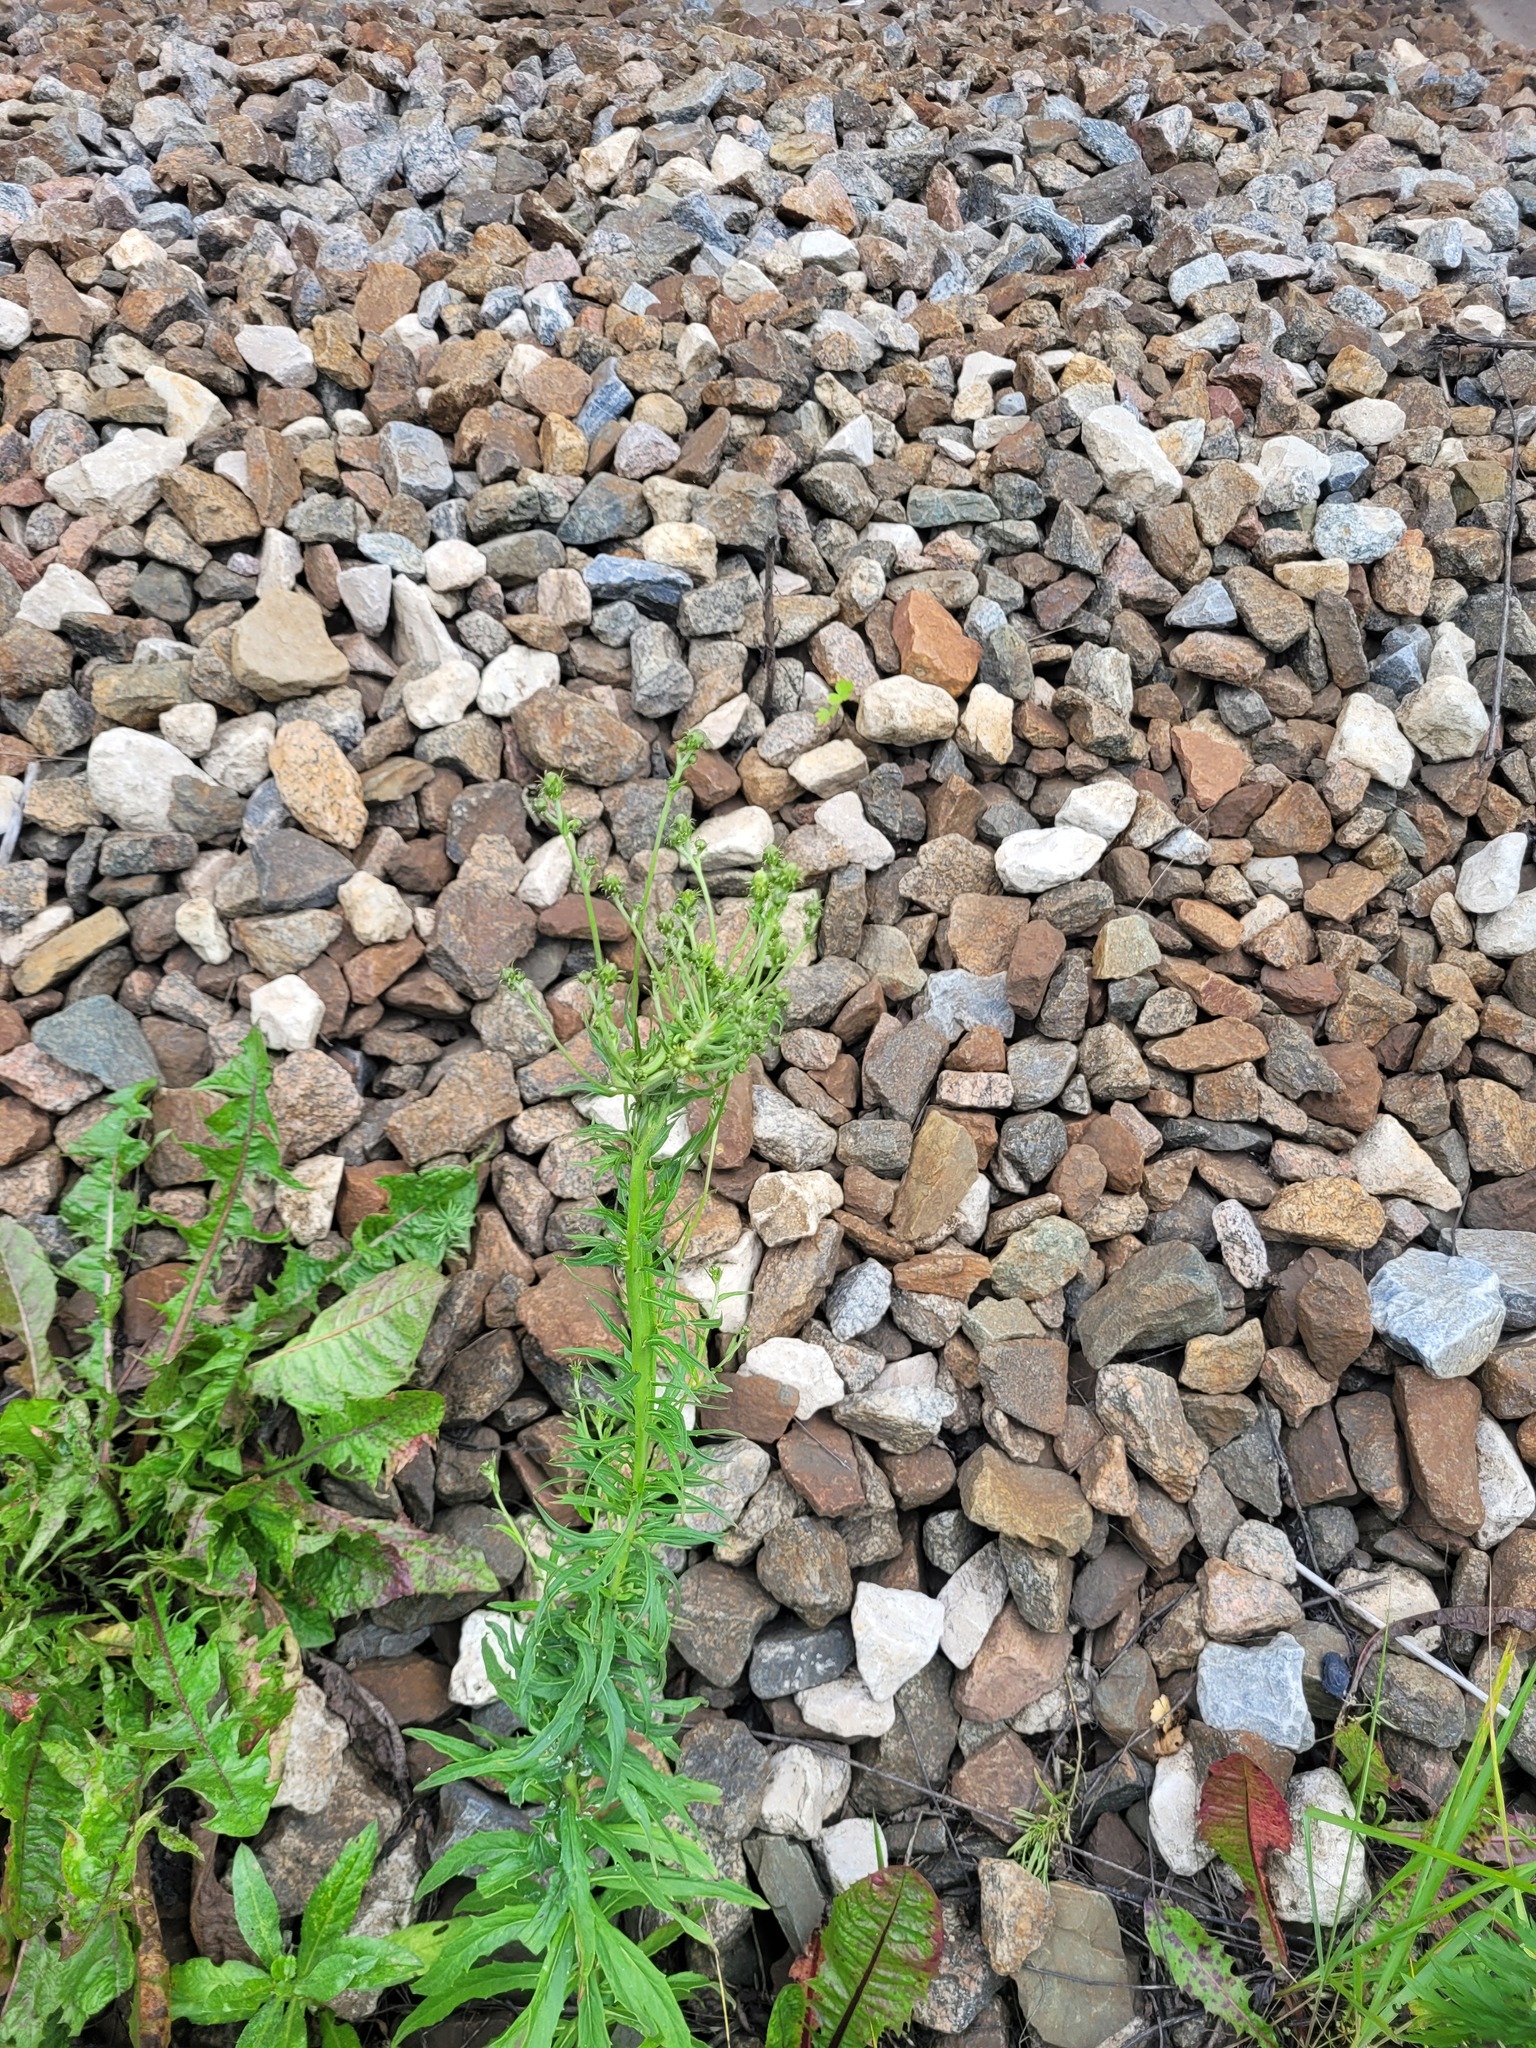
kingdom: Plantae
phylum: Tracheophyta
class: Magnoliopsida
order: Asterales
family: Asteraceae
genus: Hieracium
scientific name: Hieracium umbellatum
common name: Northern hawkweed
